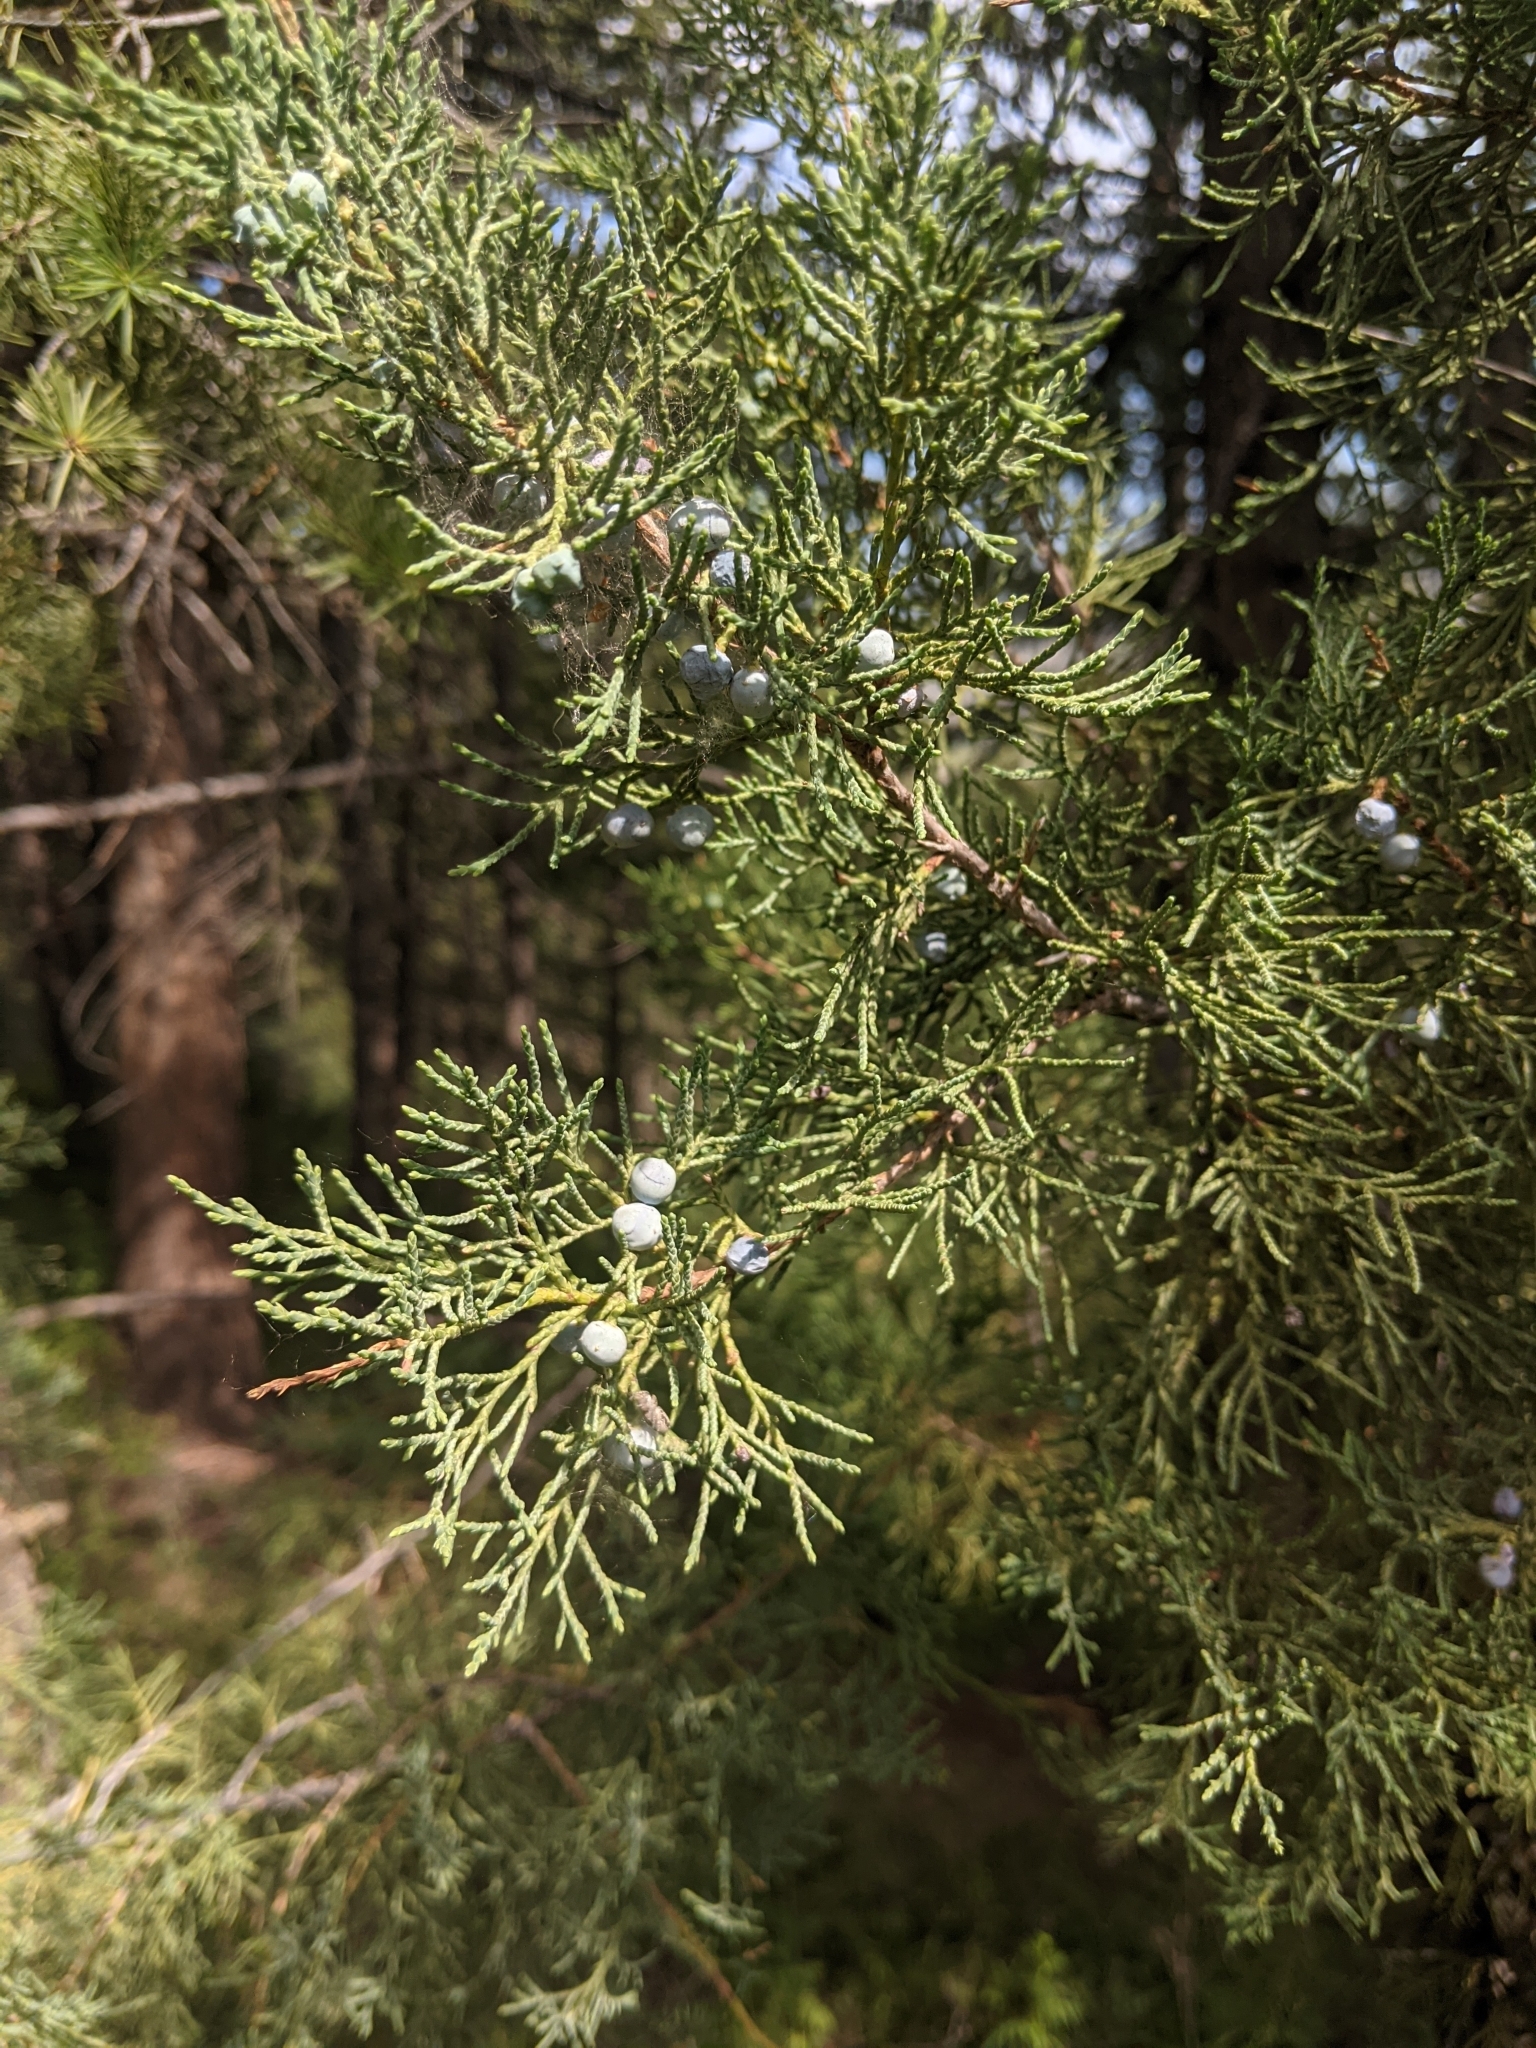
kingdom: Plantae
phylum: Tracheophyta
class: Pinopsida
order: Pinales
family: Cupressaceae
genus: Juniperus
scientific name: Juniperus scopulorum
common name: Rocky mountain juniper
